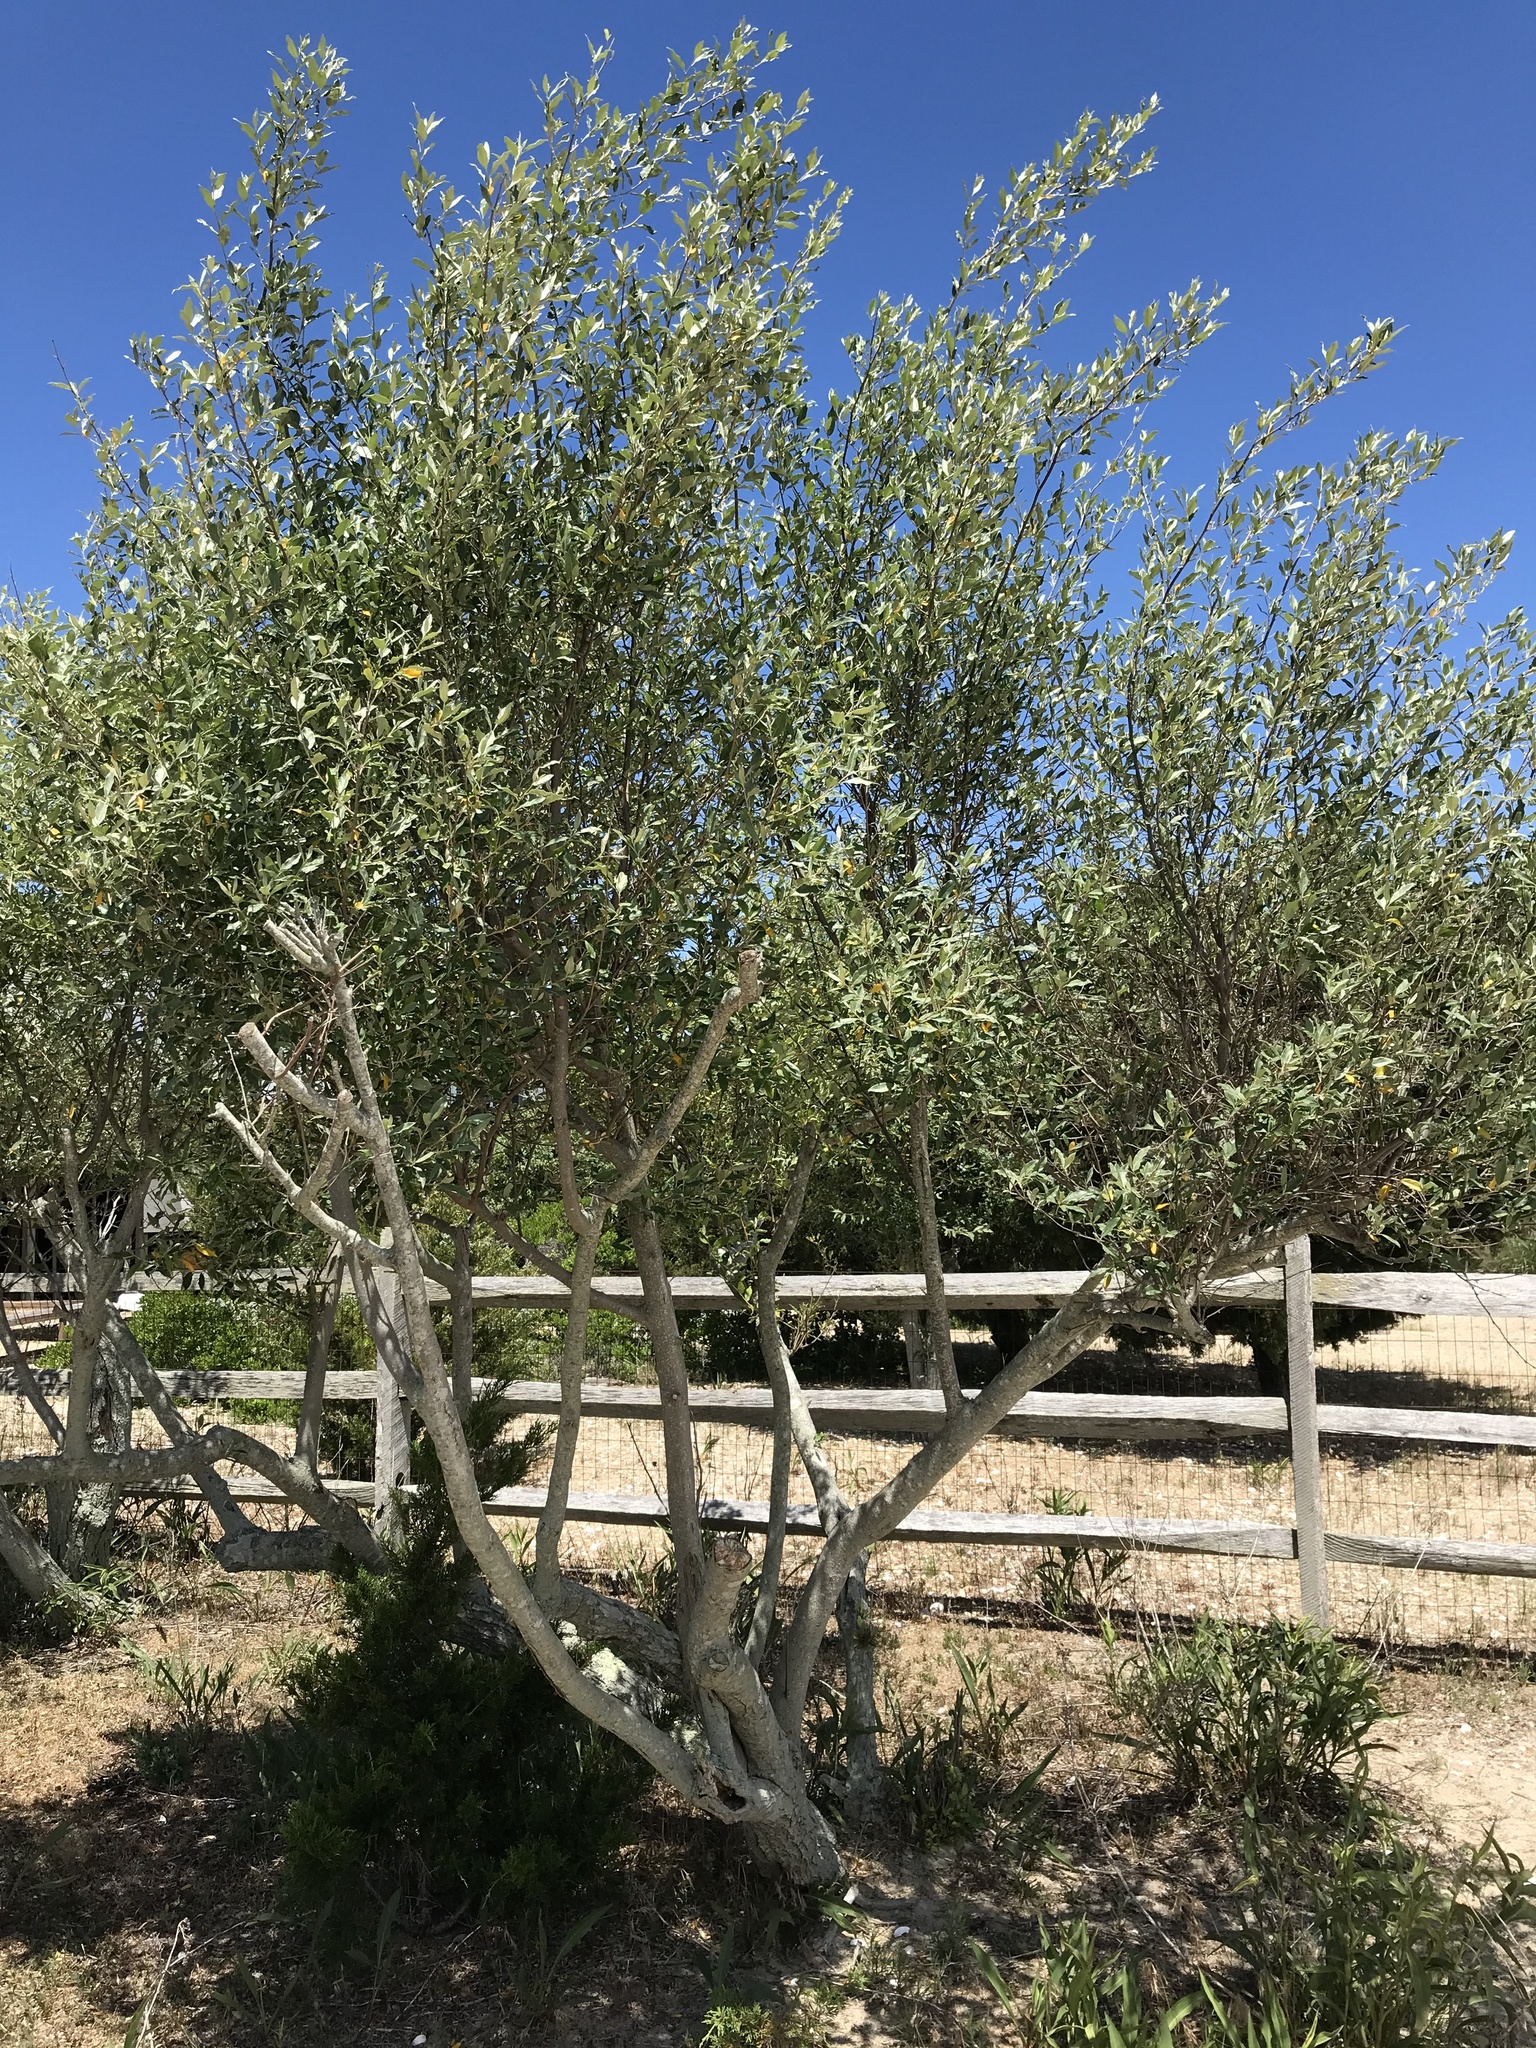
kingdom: Plantae
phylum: Tracheophyta
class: Magnoliopsida
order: Rosales
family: Elaeagnaceae
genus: Elaeagnus
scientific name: Elaeagnus umbellata
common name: Autumn olive
